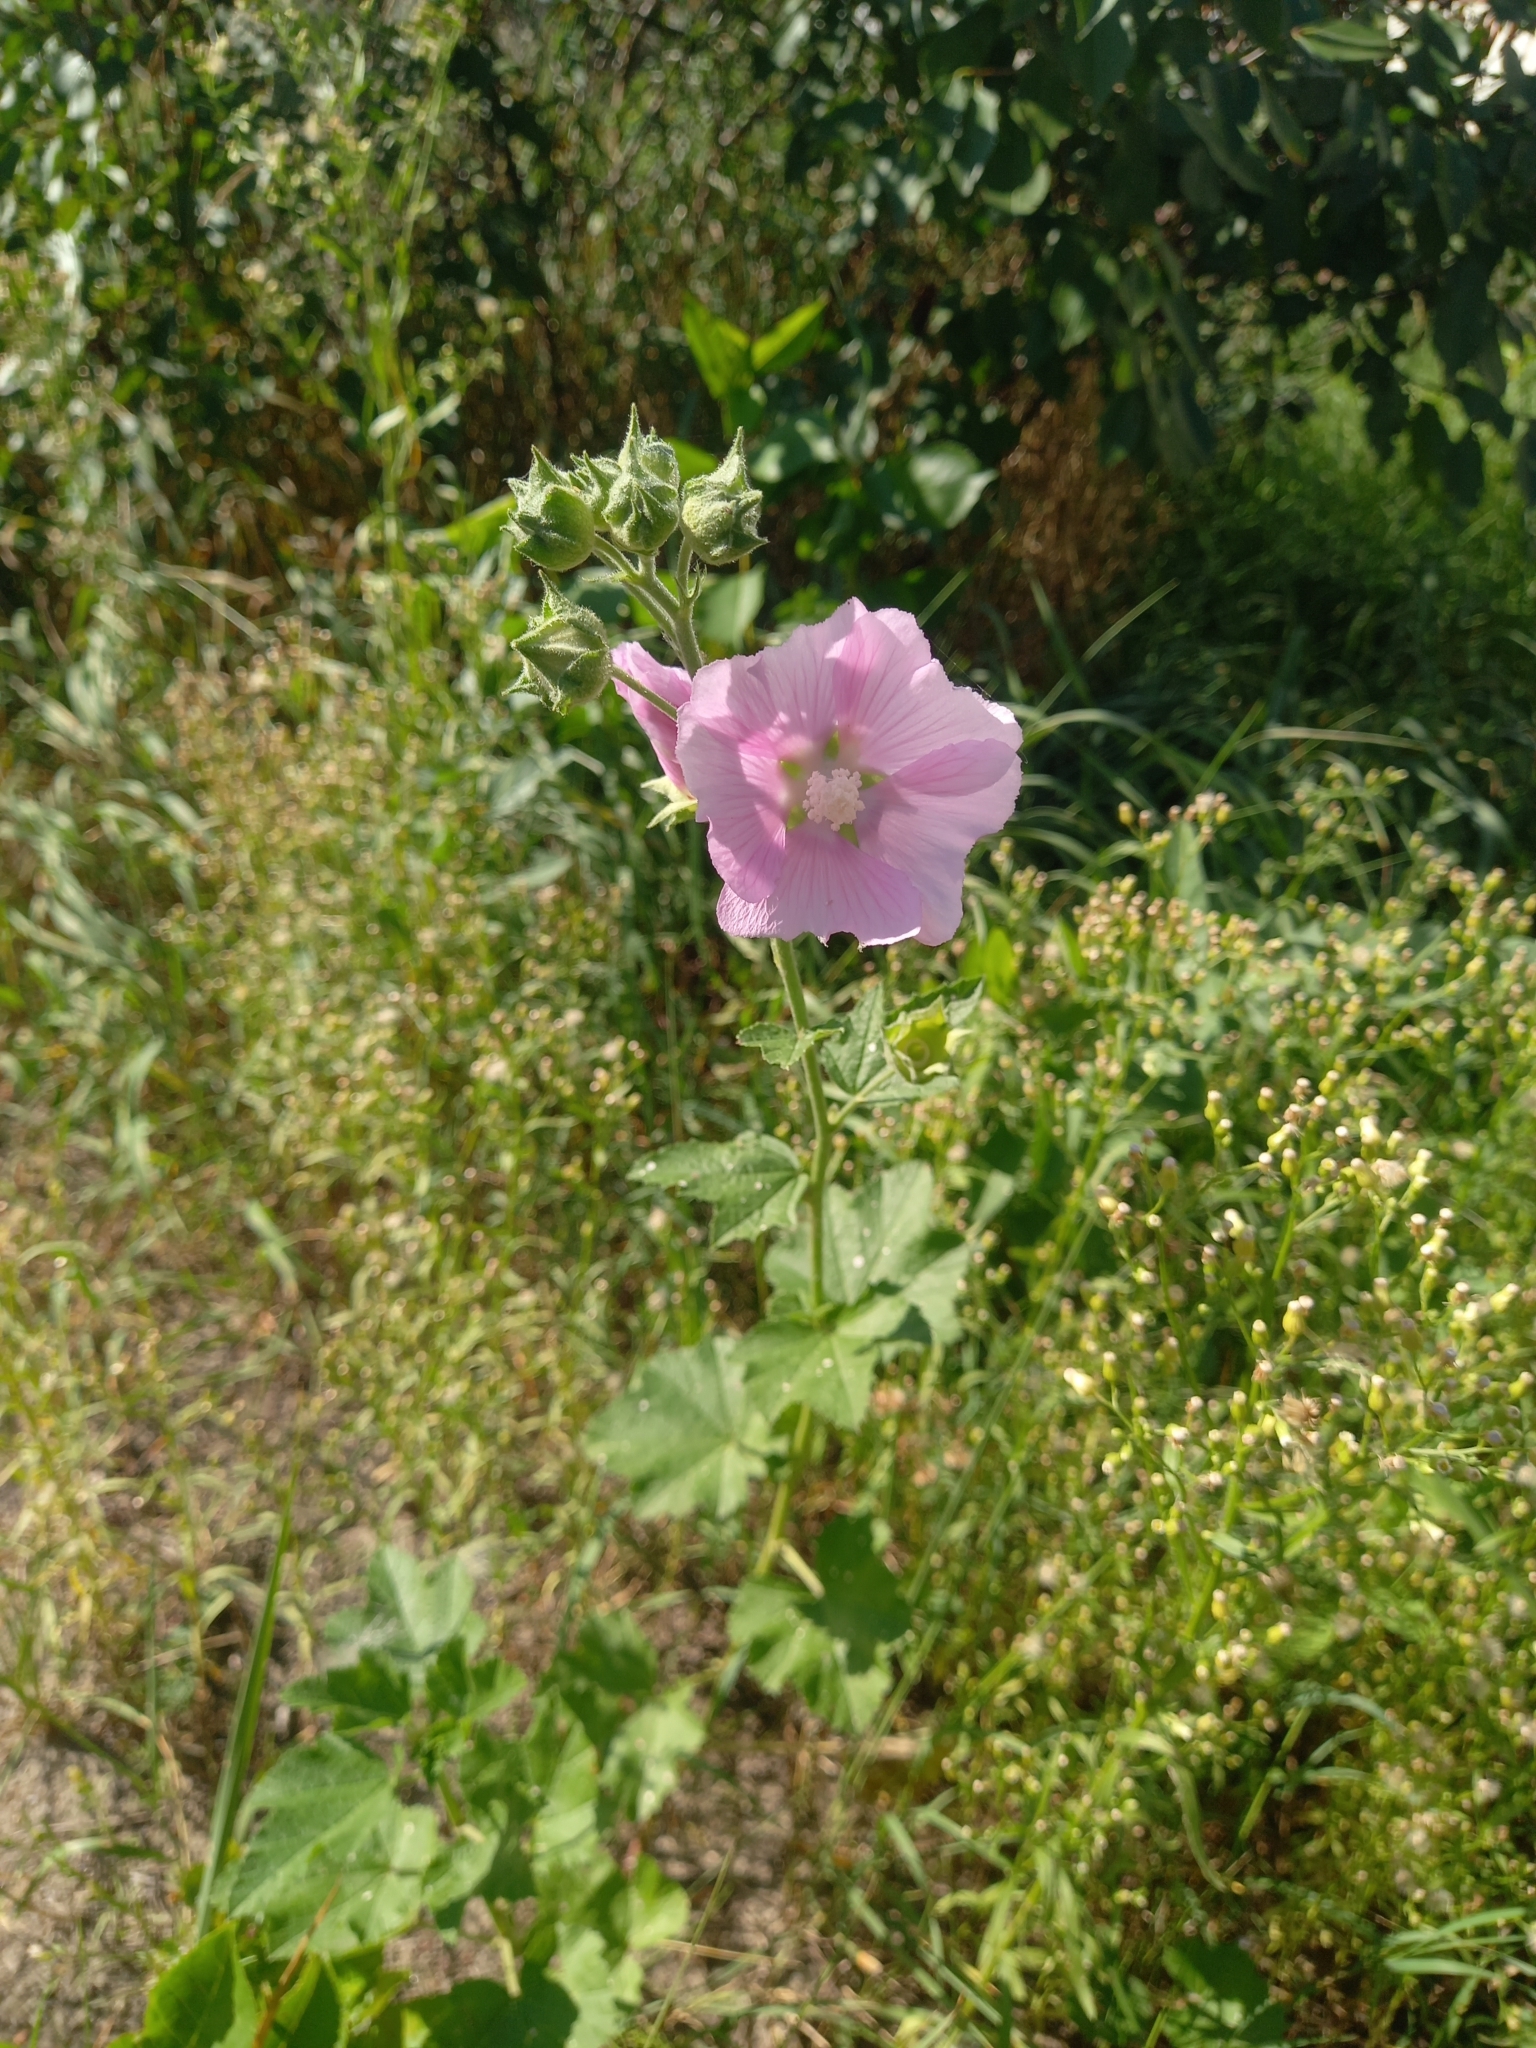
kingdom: Plantae
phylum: Tracheophyta
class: Magnoliopsida
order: Malvales
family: Malvaceae
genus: Malva
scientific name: Malva thuringiaca
